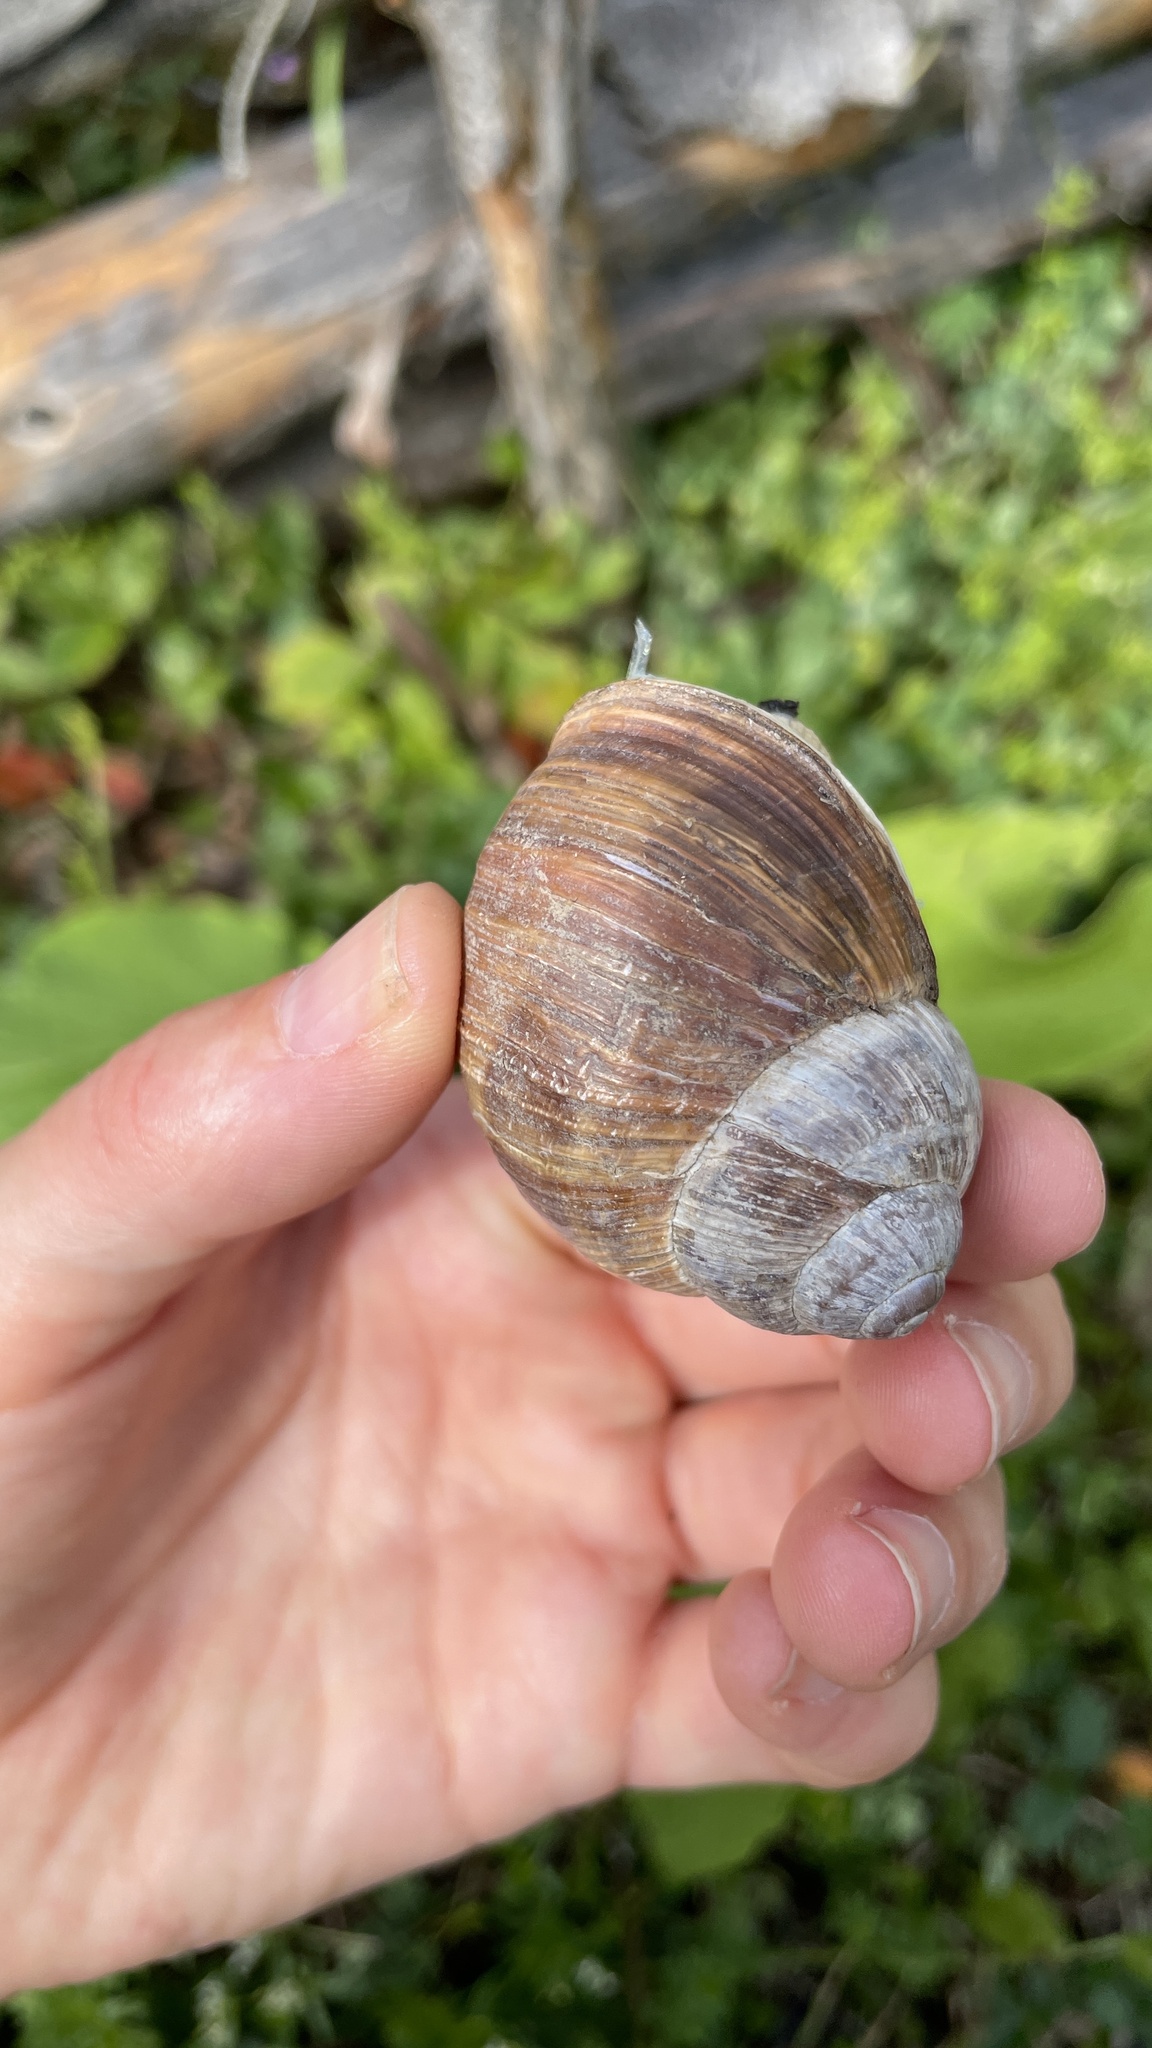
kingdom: Animalia
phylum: Mollusca
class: Gastropoda
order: Stylommatophora
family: Helicidae
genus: Helix
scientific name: Helix pomatia
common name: Roman snail
